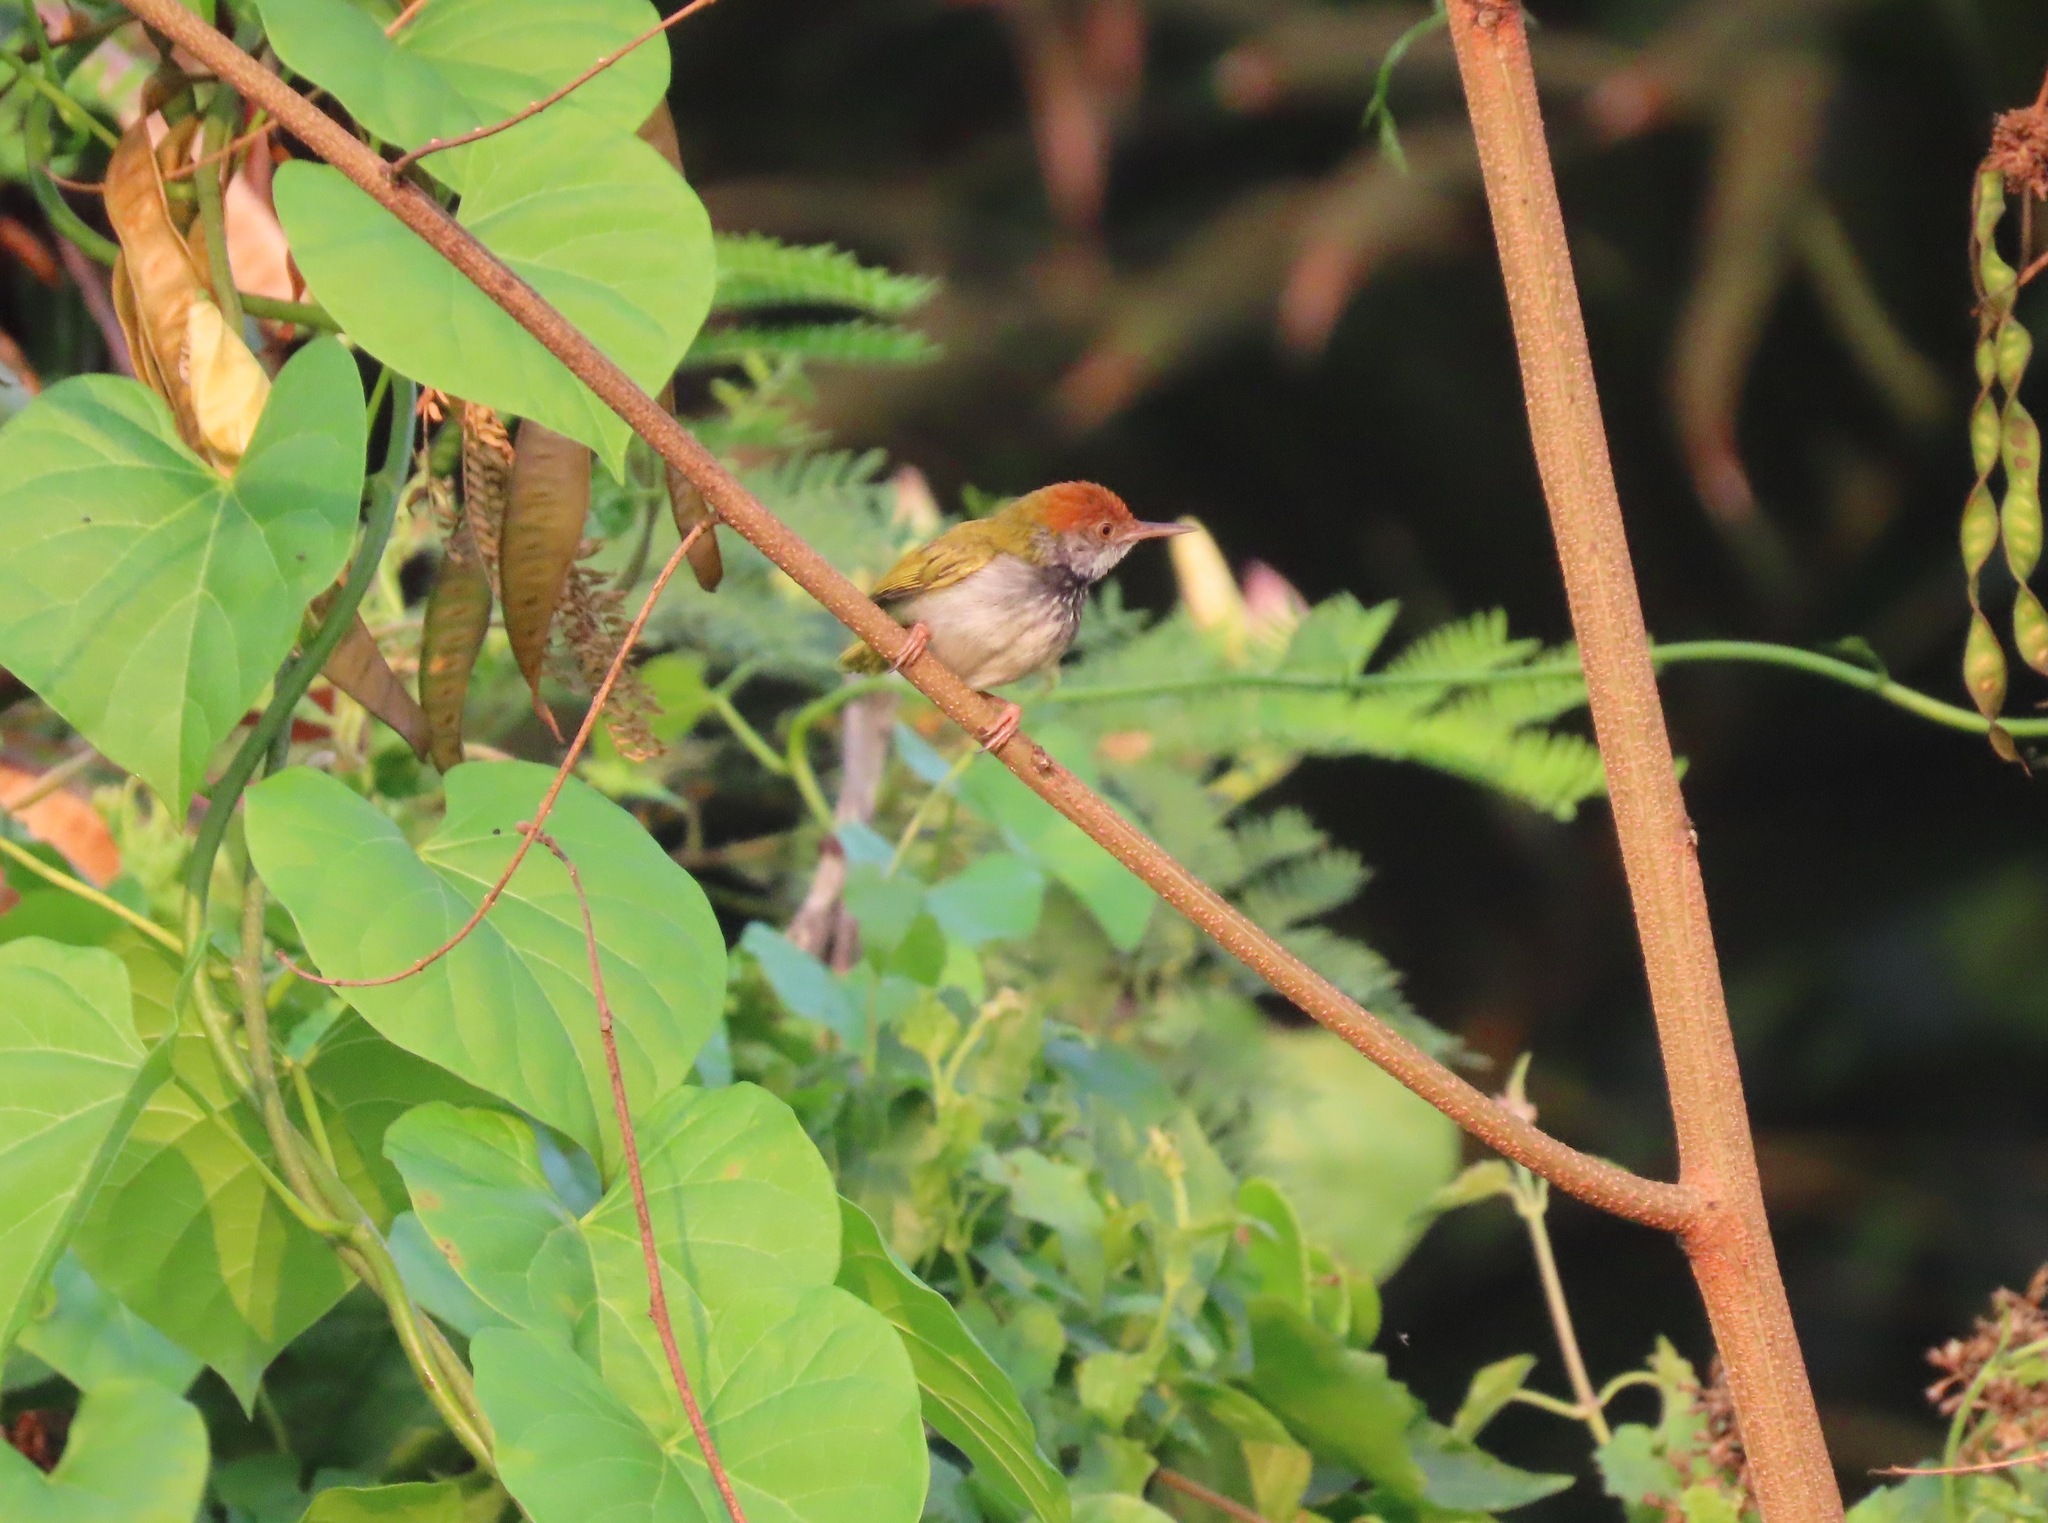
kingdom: Animalia
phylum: Chordata
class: Aves
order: Passeriformes
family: Cisticolidae
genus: Orthotomus
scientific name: Orthotomus atrogularis
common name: Dark-necked tailorbird
